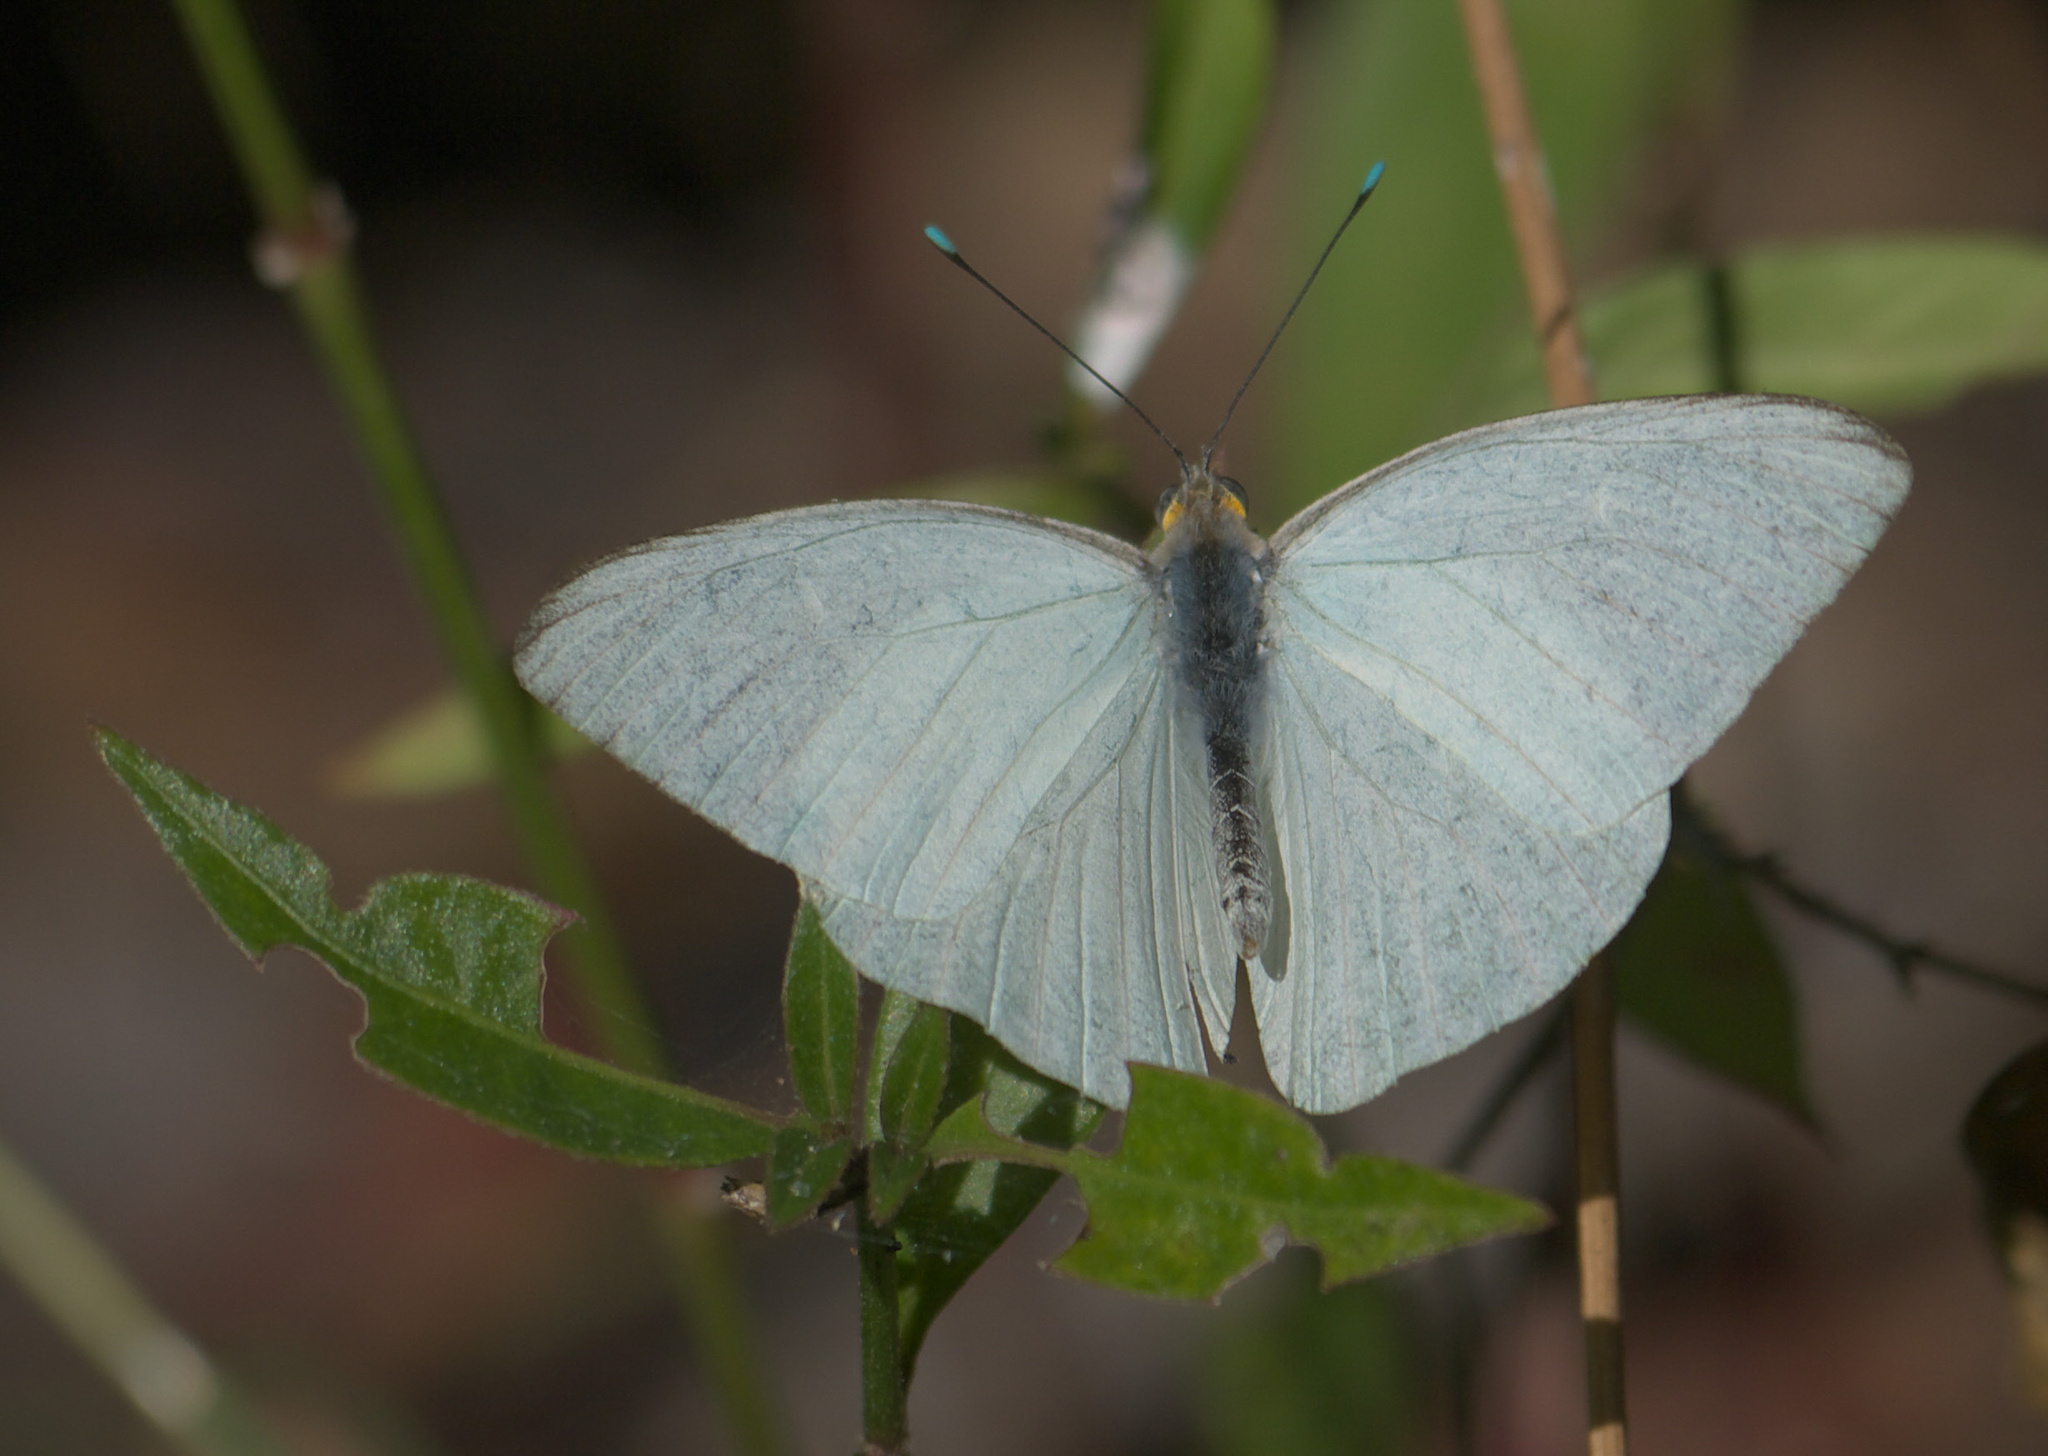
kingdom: Animalia
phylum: Arthropoda
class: Insecta
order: Lepidoptera
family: Pieridae
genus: Ascia
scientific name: Ascia monuste
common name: Great southern white
